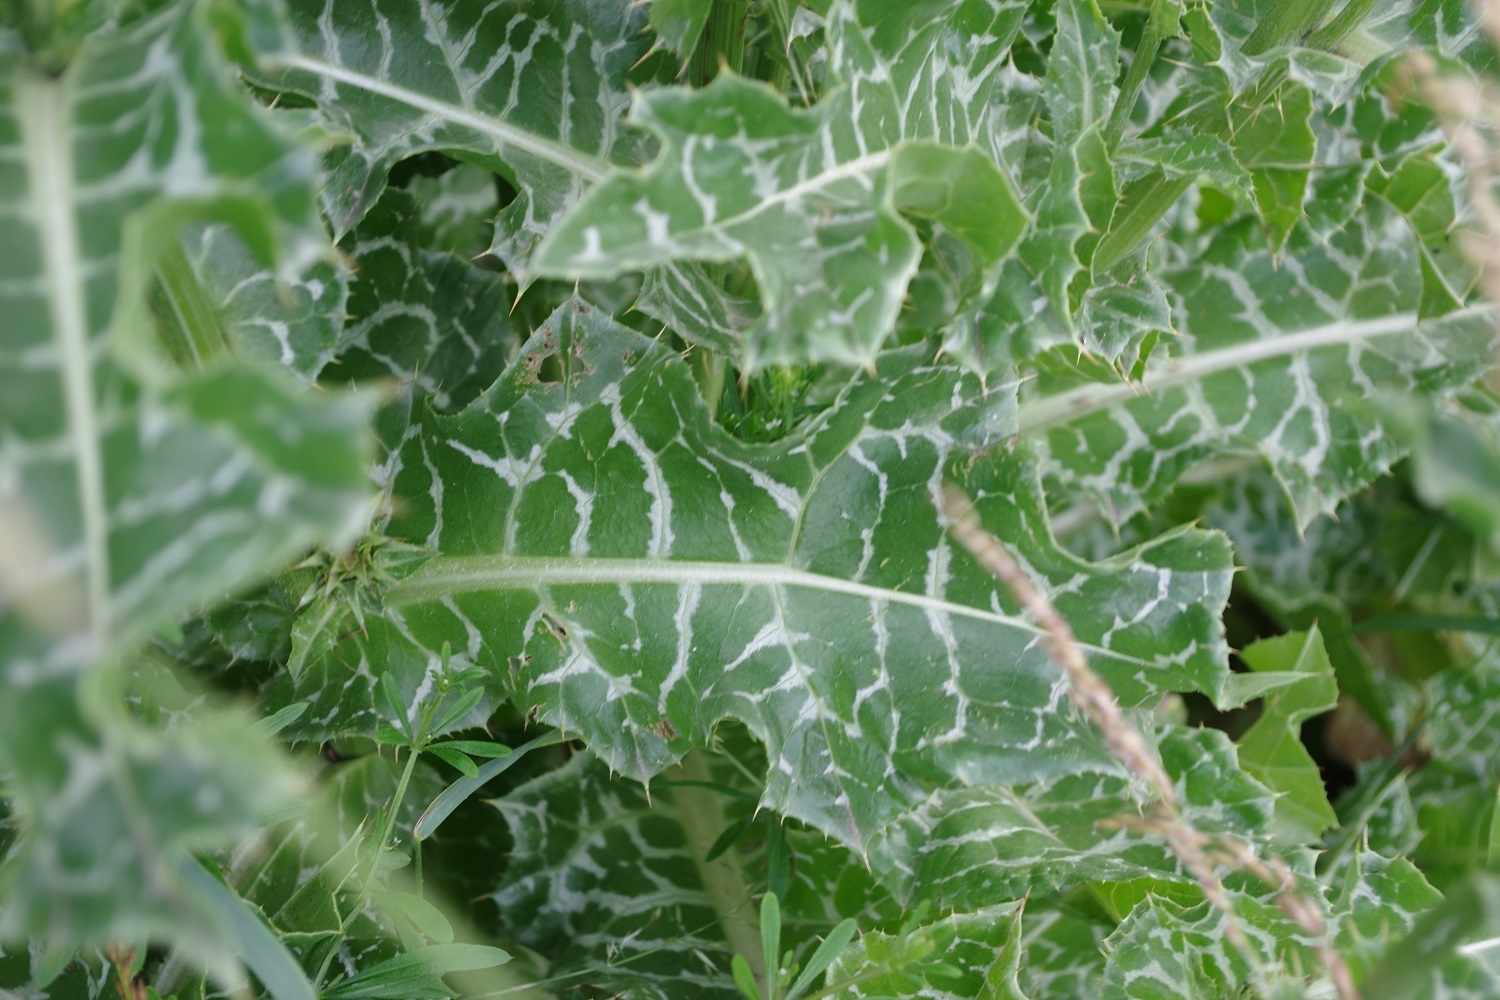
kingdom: Plantae
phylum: Tracheophyta
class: Magnoliopsida
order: Asterales
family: Asteraceae
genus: Silybum
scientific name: Silybum marianum
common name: Milk thistle
